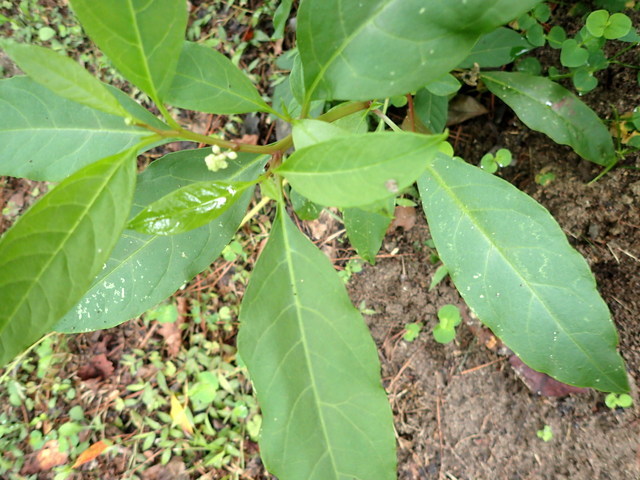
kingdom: Plantae
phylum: Tracheophyta
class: Magnoliopsida
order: Caryophyllales
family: Phytolaccaceae
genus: Phytolacca
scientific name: Phytolacca americana
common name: American pokeweed
